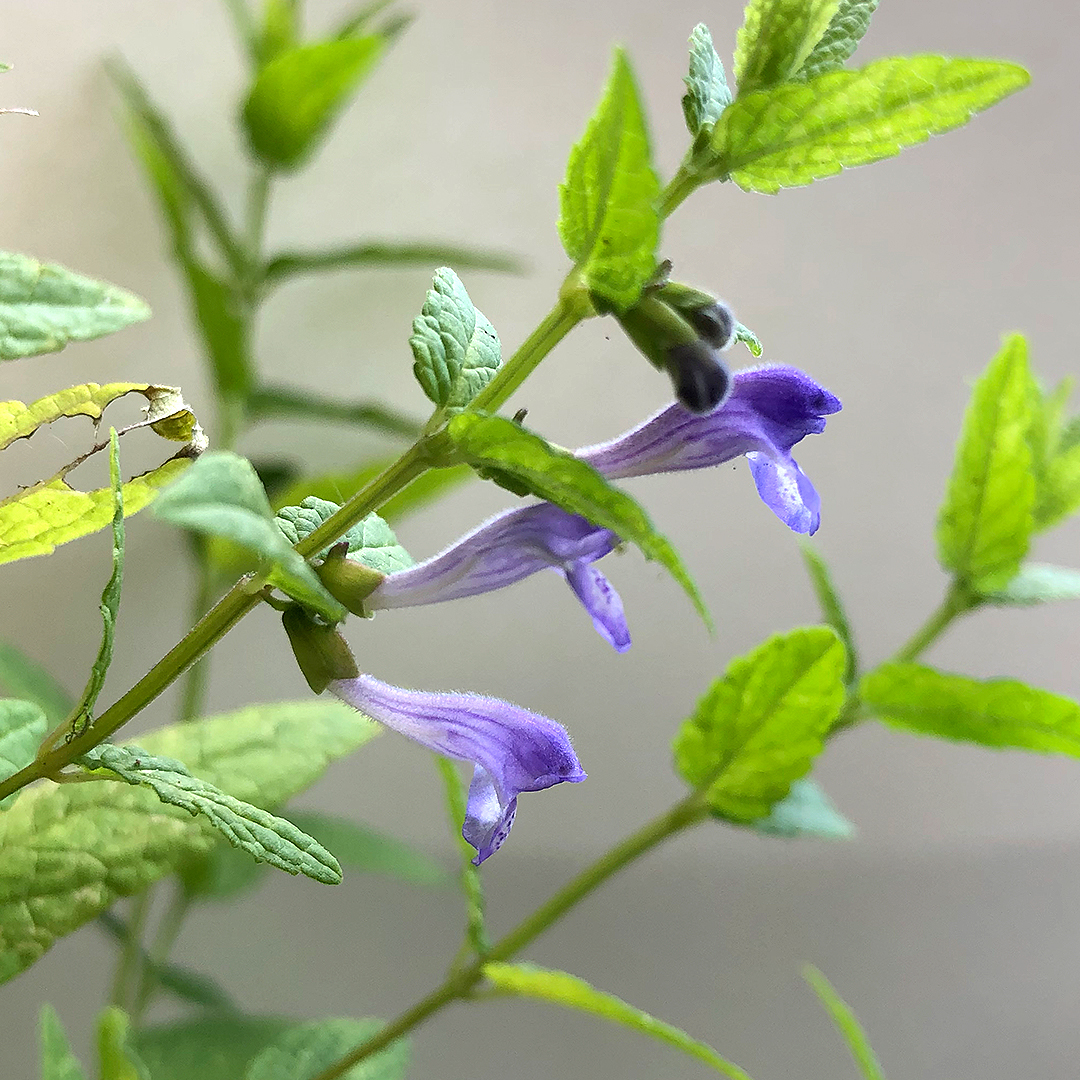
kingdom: Plantae
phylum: Tracheophyta
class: Magnoliopsida
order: Lamiales
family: Lamiaceae
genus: Scutellaria
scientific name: Scutellaria galericulata
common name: Skullcap
